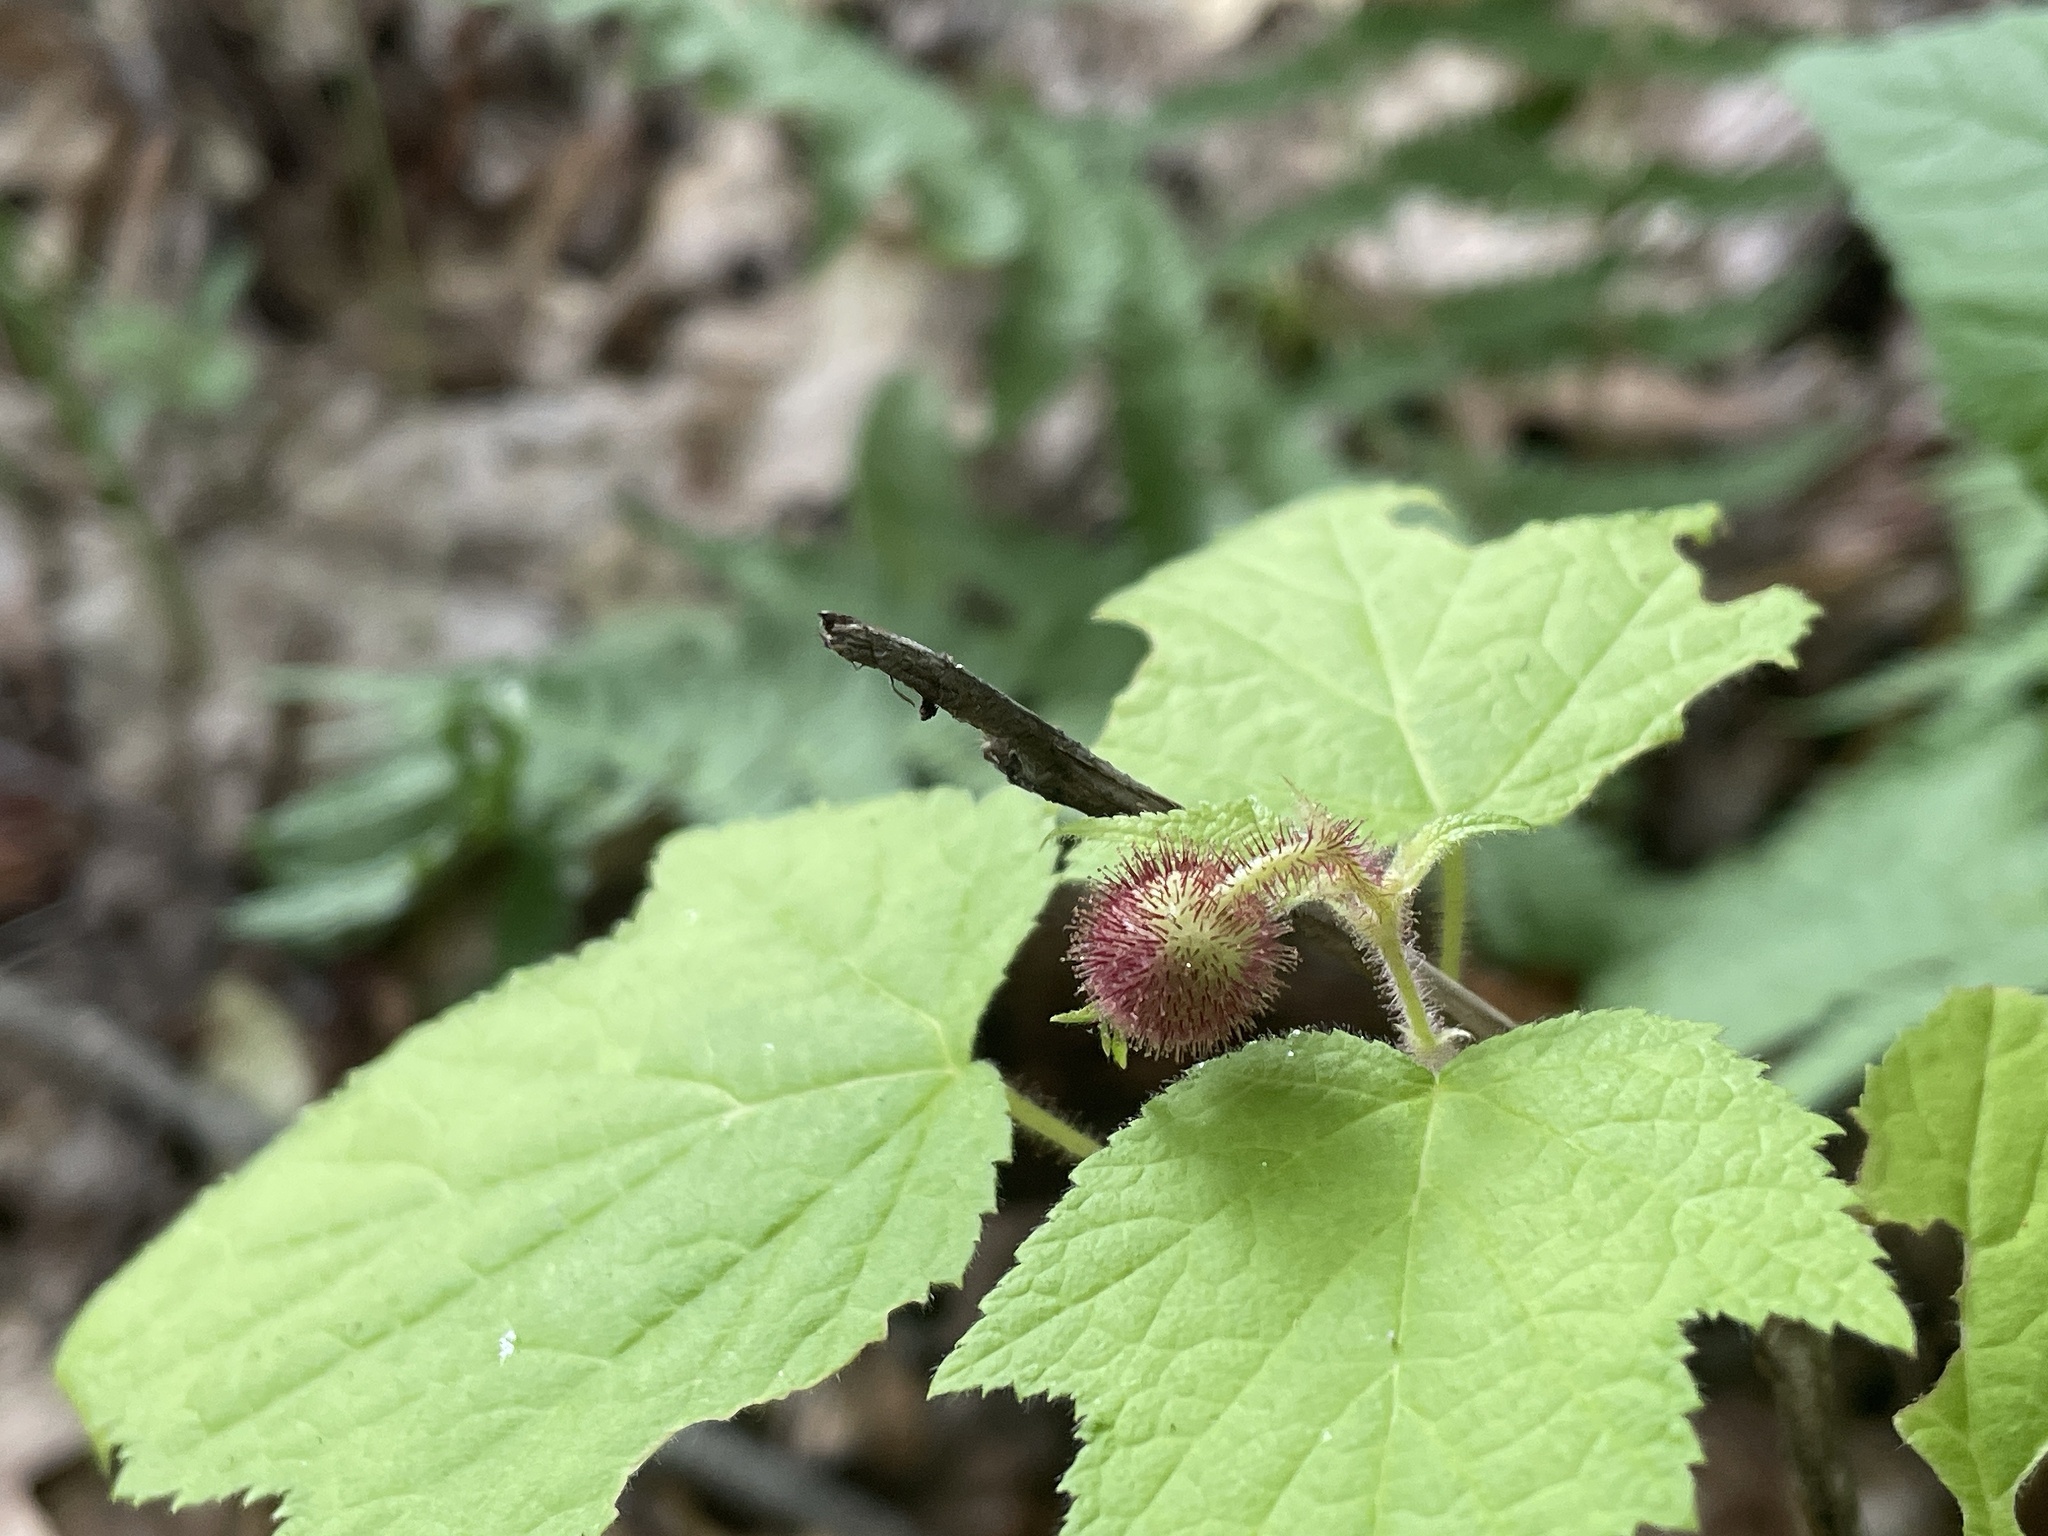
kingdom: Plantae
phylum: Tracheophyta
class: Magnoliopsida
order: Rosales
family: Rosaceae
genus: Rubus
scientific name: Rubus odoratus
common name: Purple-flowered raspberry
